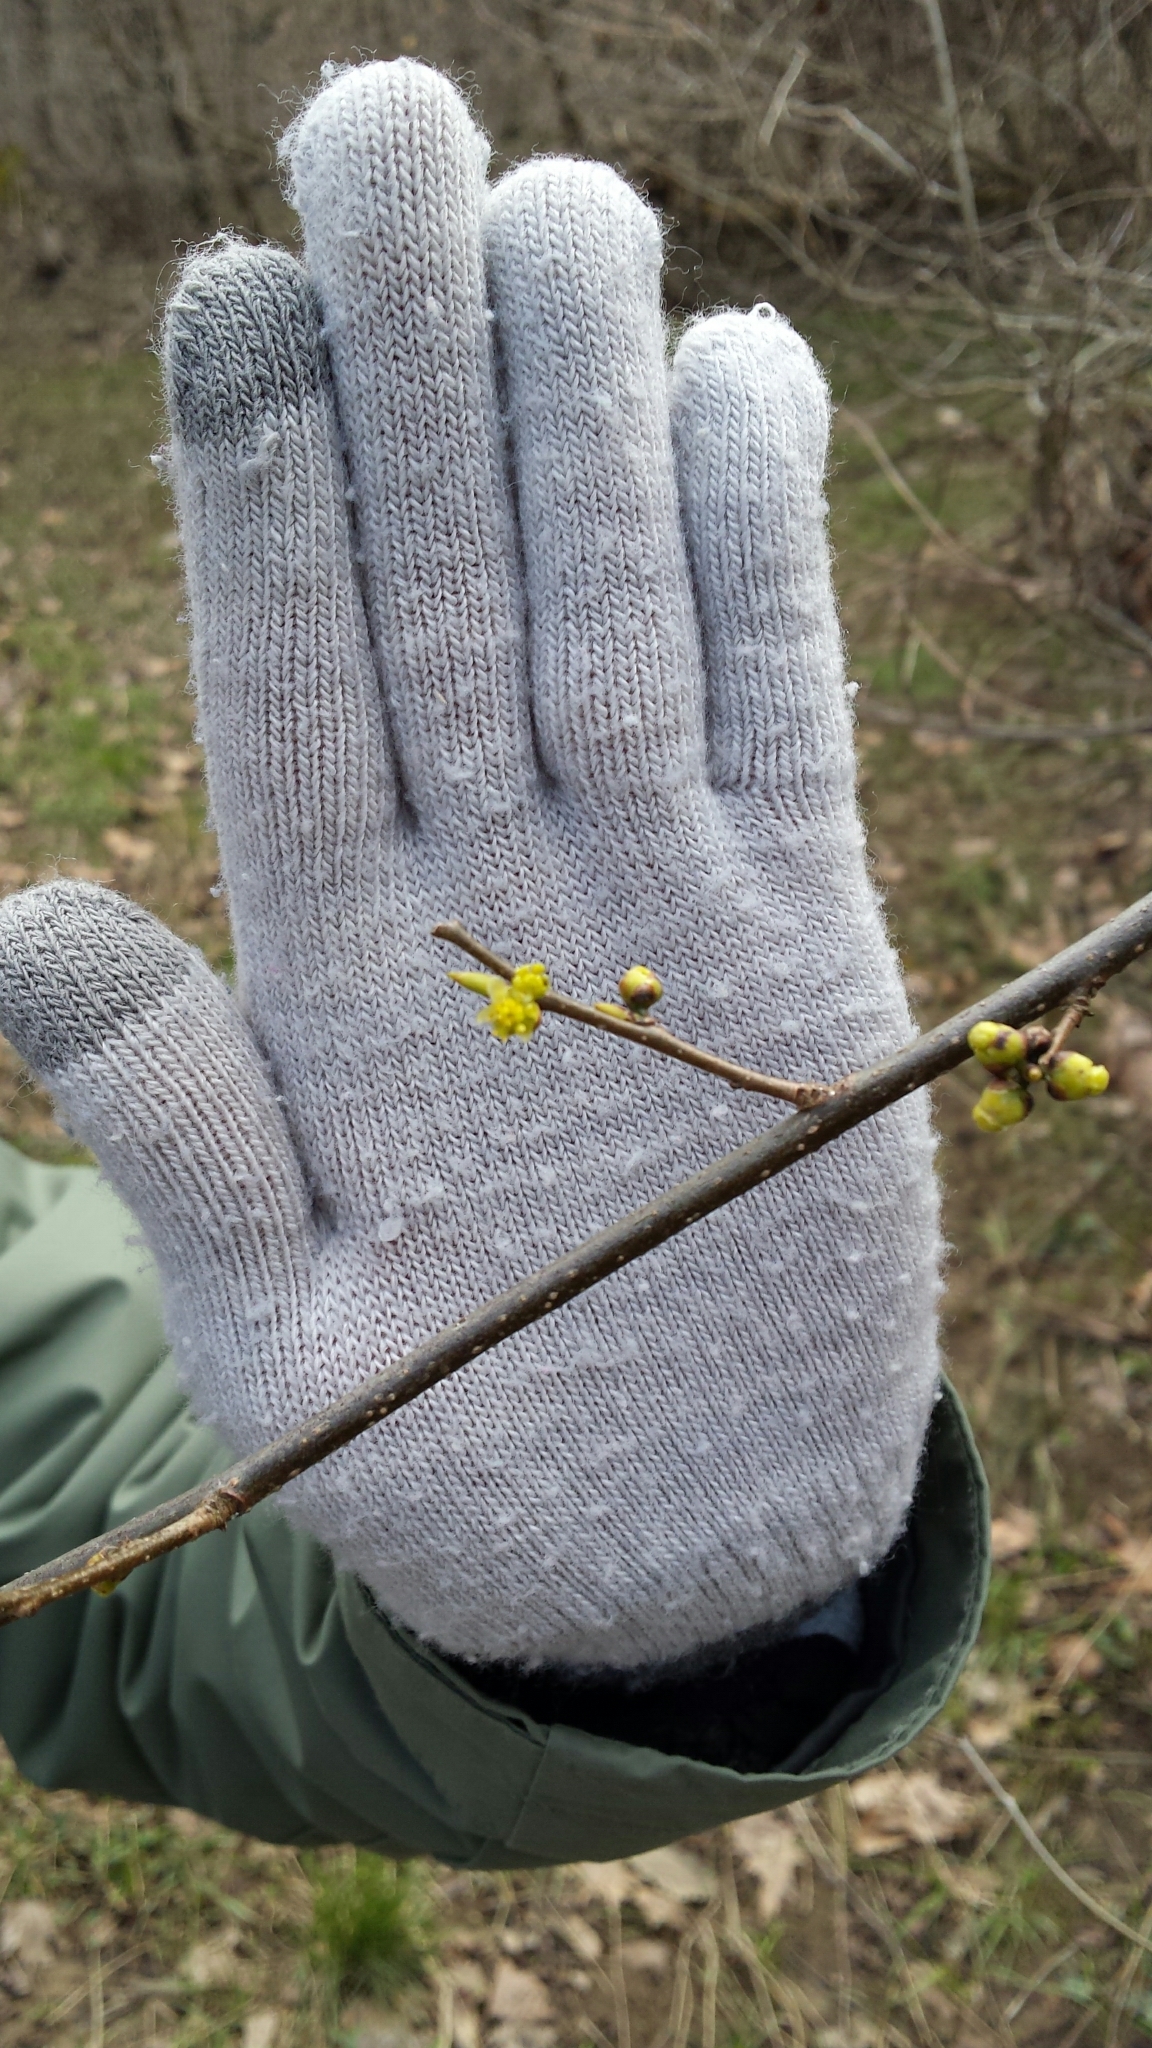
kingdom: Plantae
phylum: Tracheophyta
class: Magnoliopsida
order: Laurales
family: Lauraceae
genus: Lindera
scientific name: Lindera benzoin
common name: Spicebush
